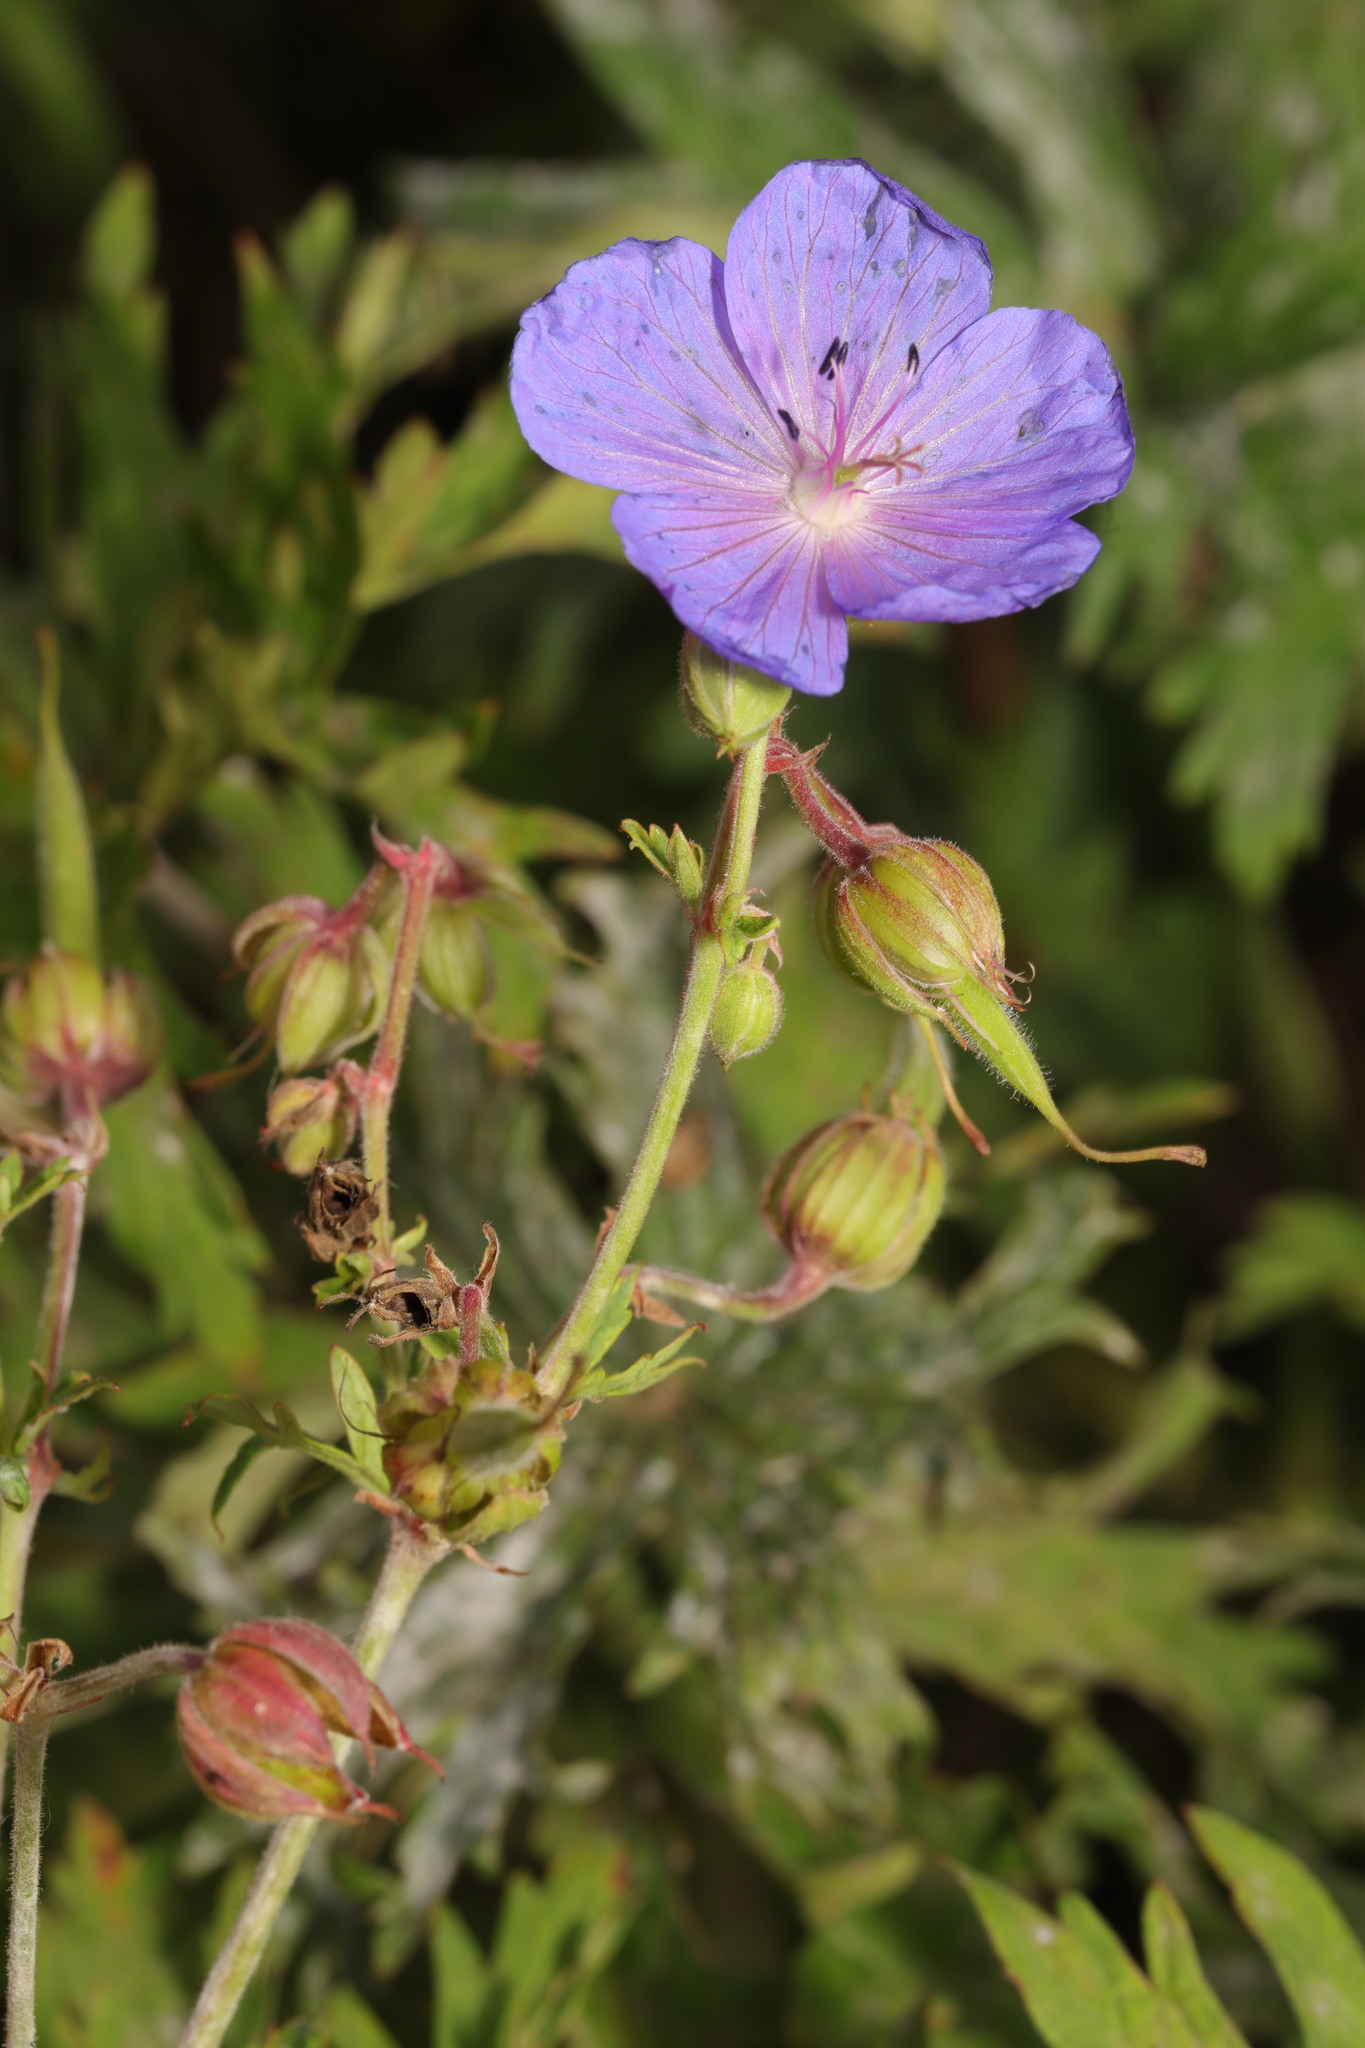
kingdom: Plantae
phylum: Tracheophyta
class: Magnoliopsida
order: Geraniales
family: Geraniaceae
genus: Geranium
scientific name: Geranium pratense
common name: Meadow crane's-bill
